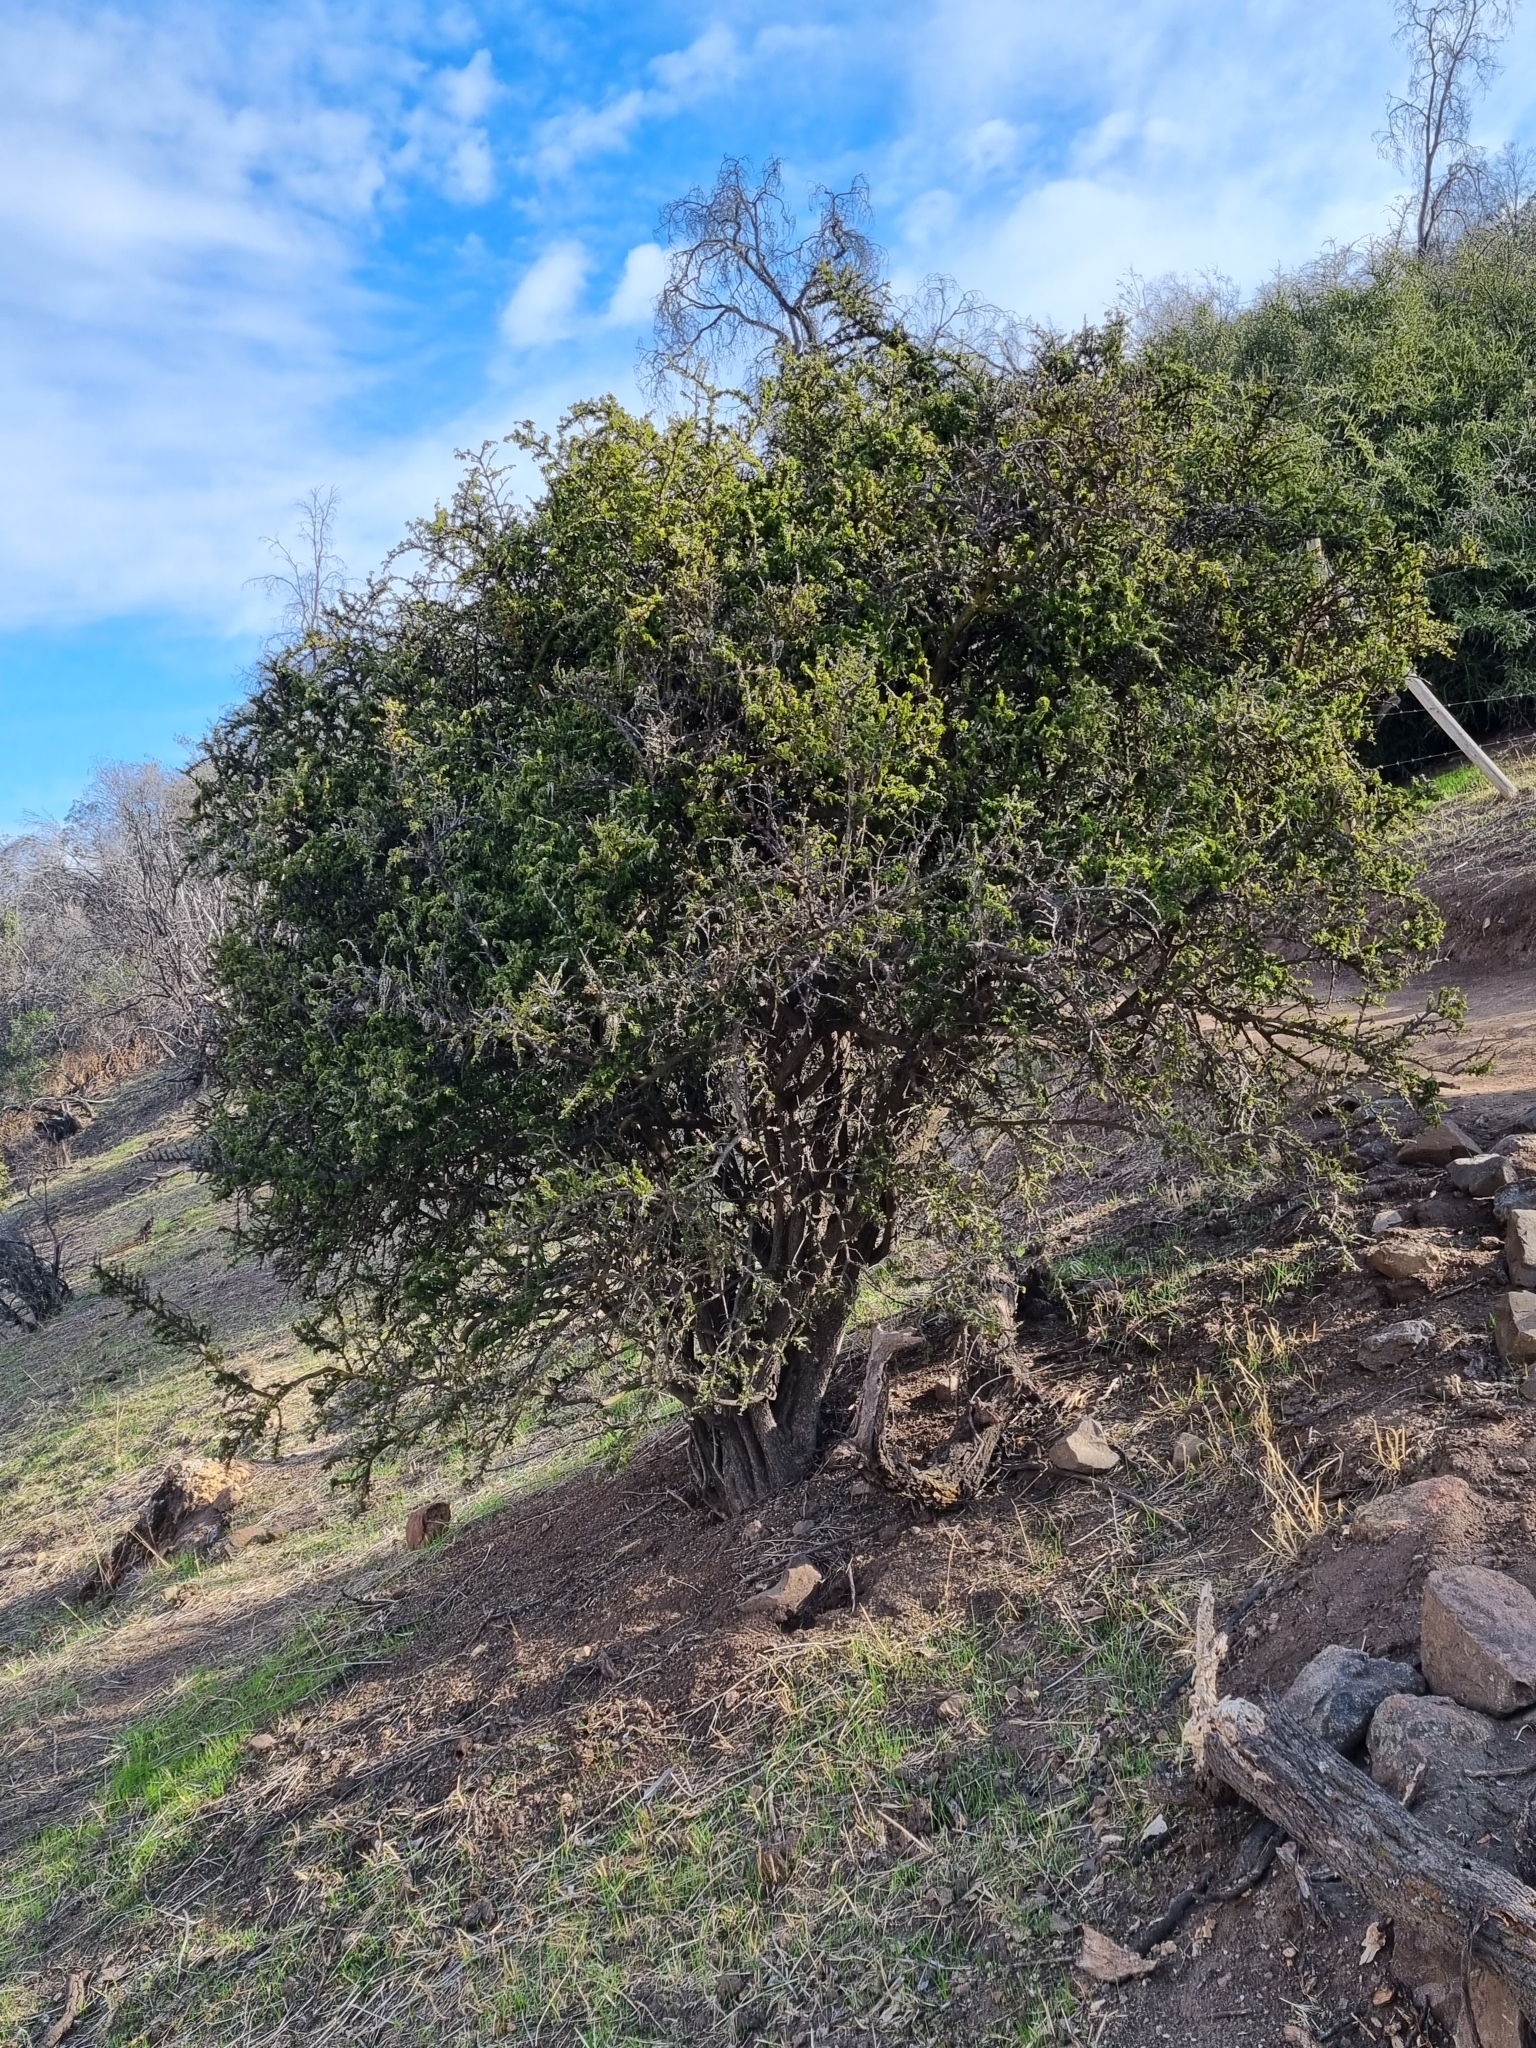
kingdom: Plantae
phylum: Tracheophyta
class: Magnoliopsida
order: Zygophyllales
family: Zygophyllaceae
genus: Porlieria
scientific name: Porlieria chilensis
